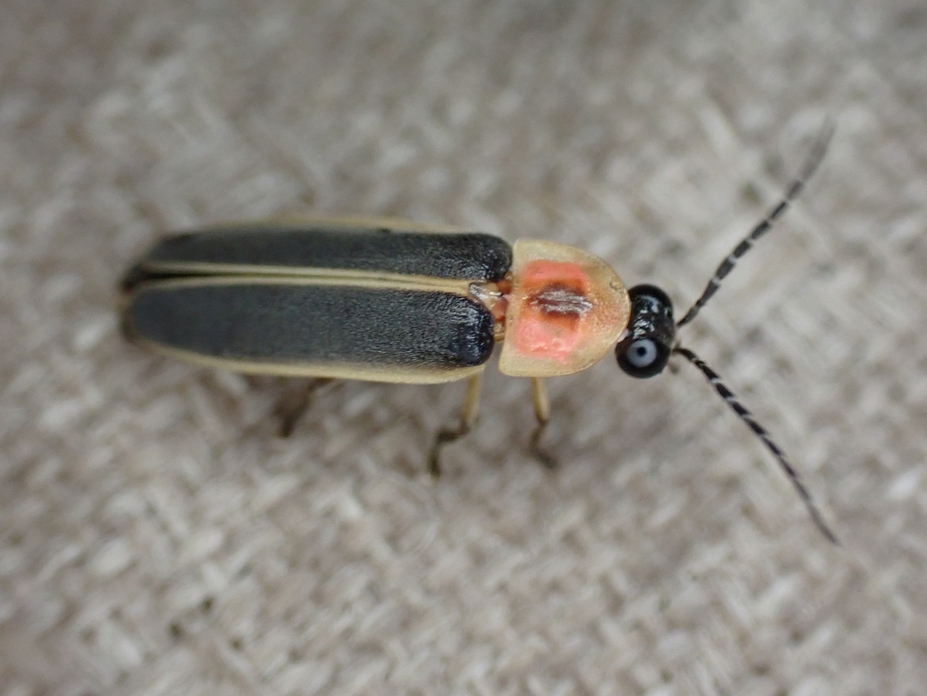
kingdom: Animalia
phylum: Arthropoda
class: Insecta
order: Coleoptera
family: Lampyridae
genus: Photinus
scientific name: Photinus pyralis
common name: Big dipper firefly
